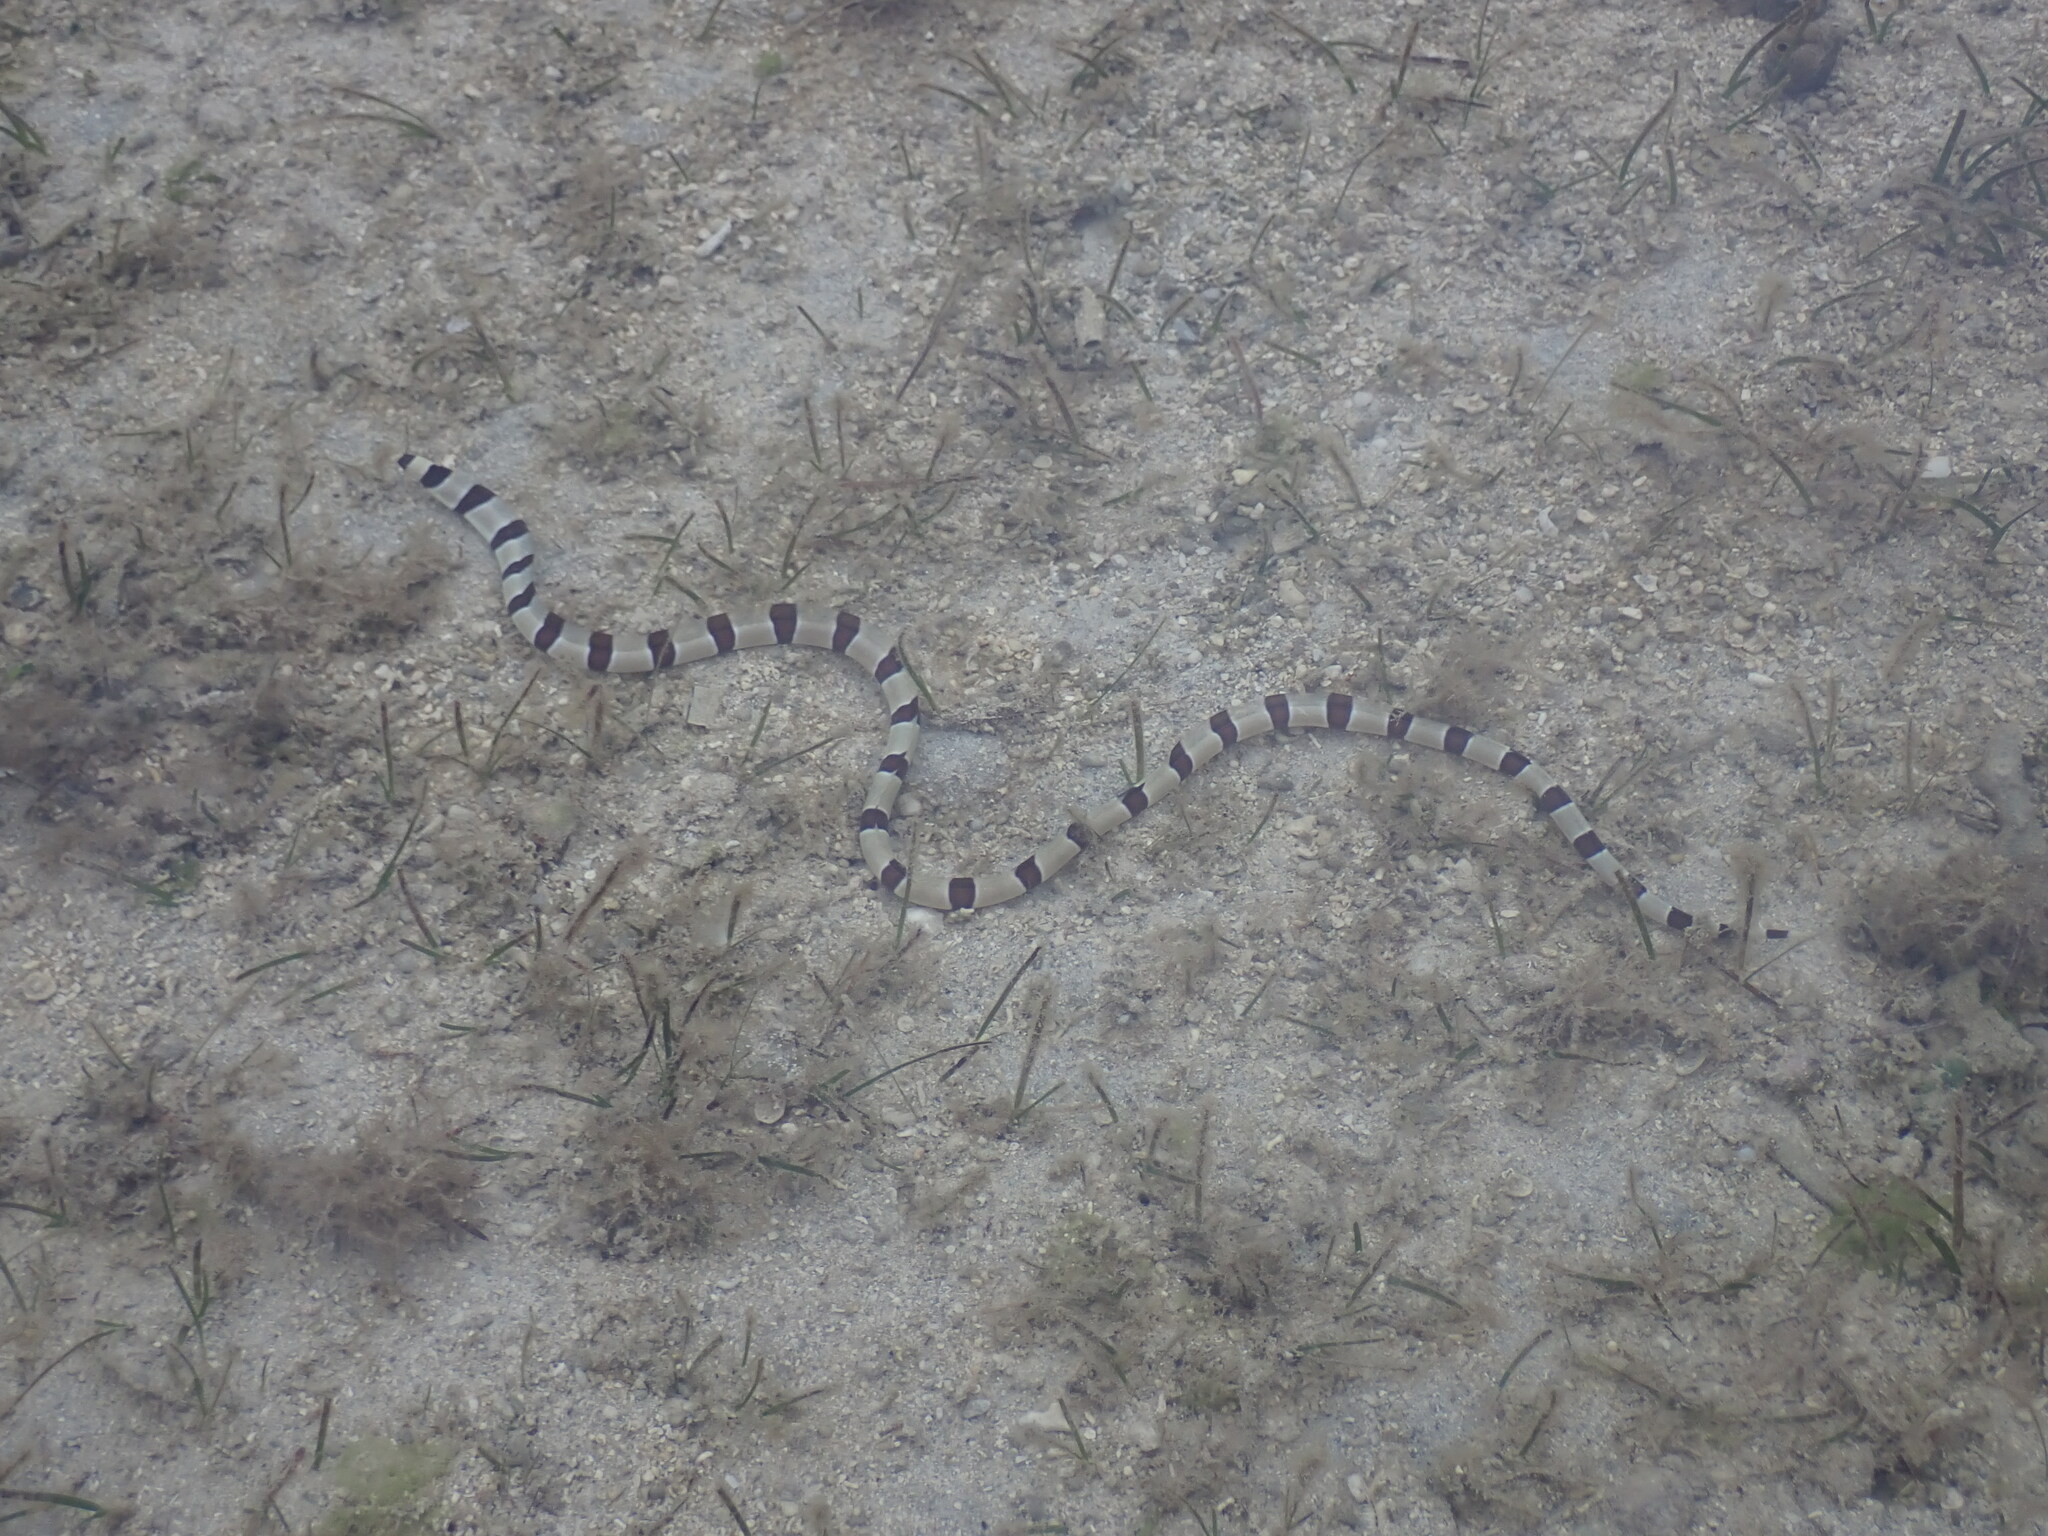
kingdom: Animalia
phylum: Chordata
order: Anguilliformes
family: Ophichthidae
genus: Myrichthys
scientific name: Myrichthys colubrinus
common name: Harlequin snake eel
